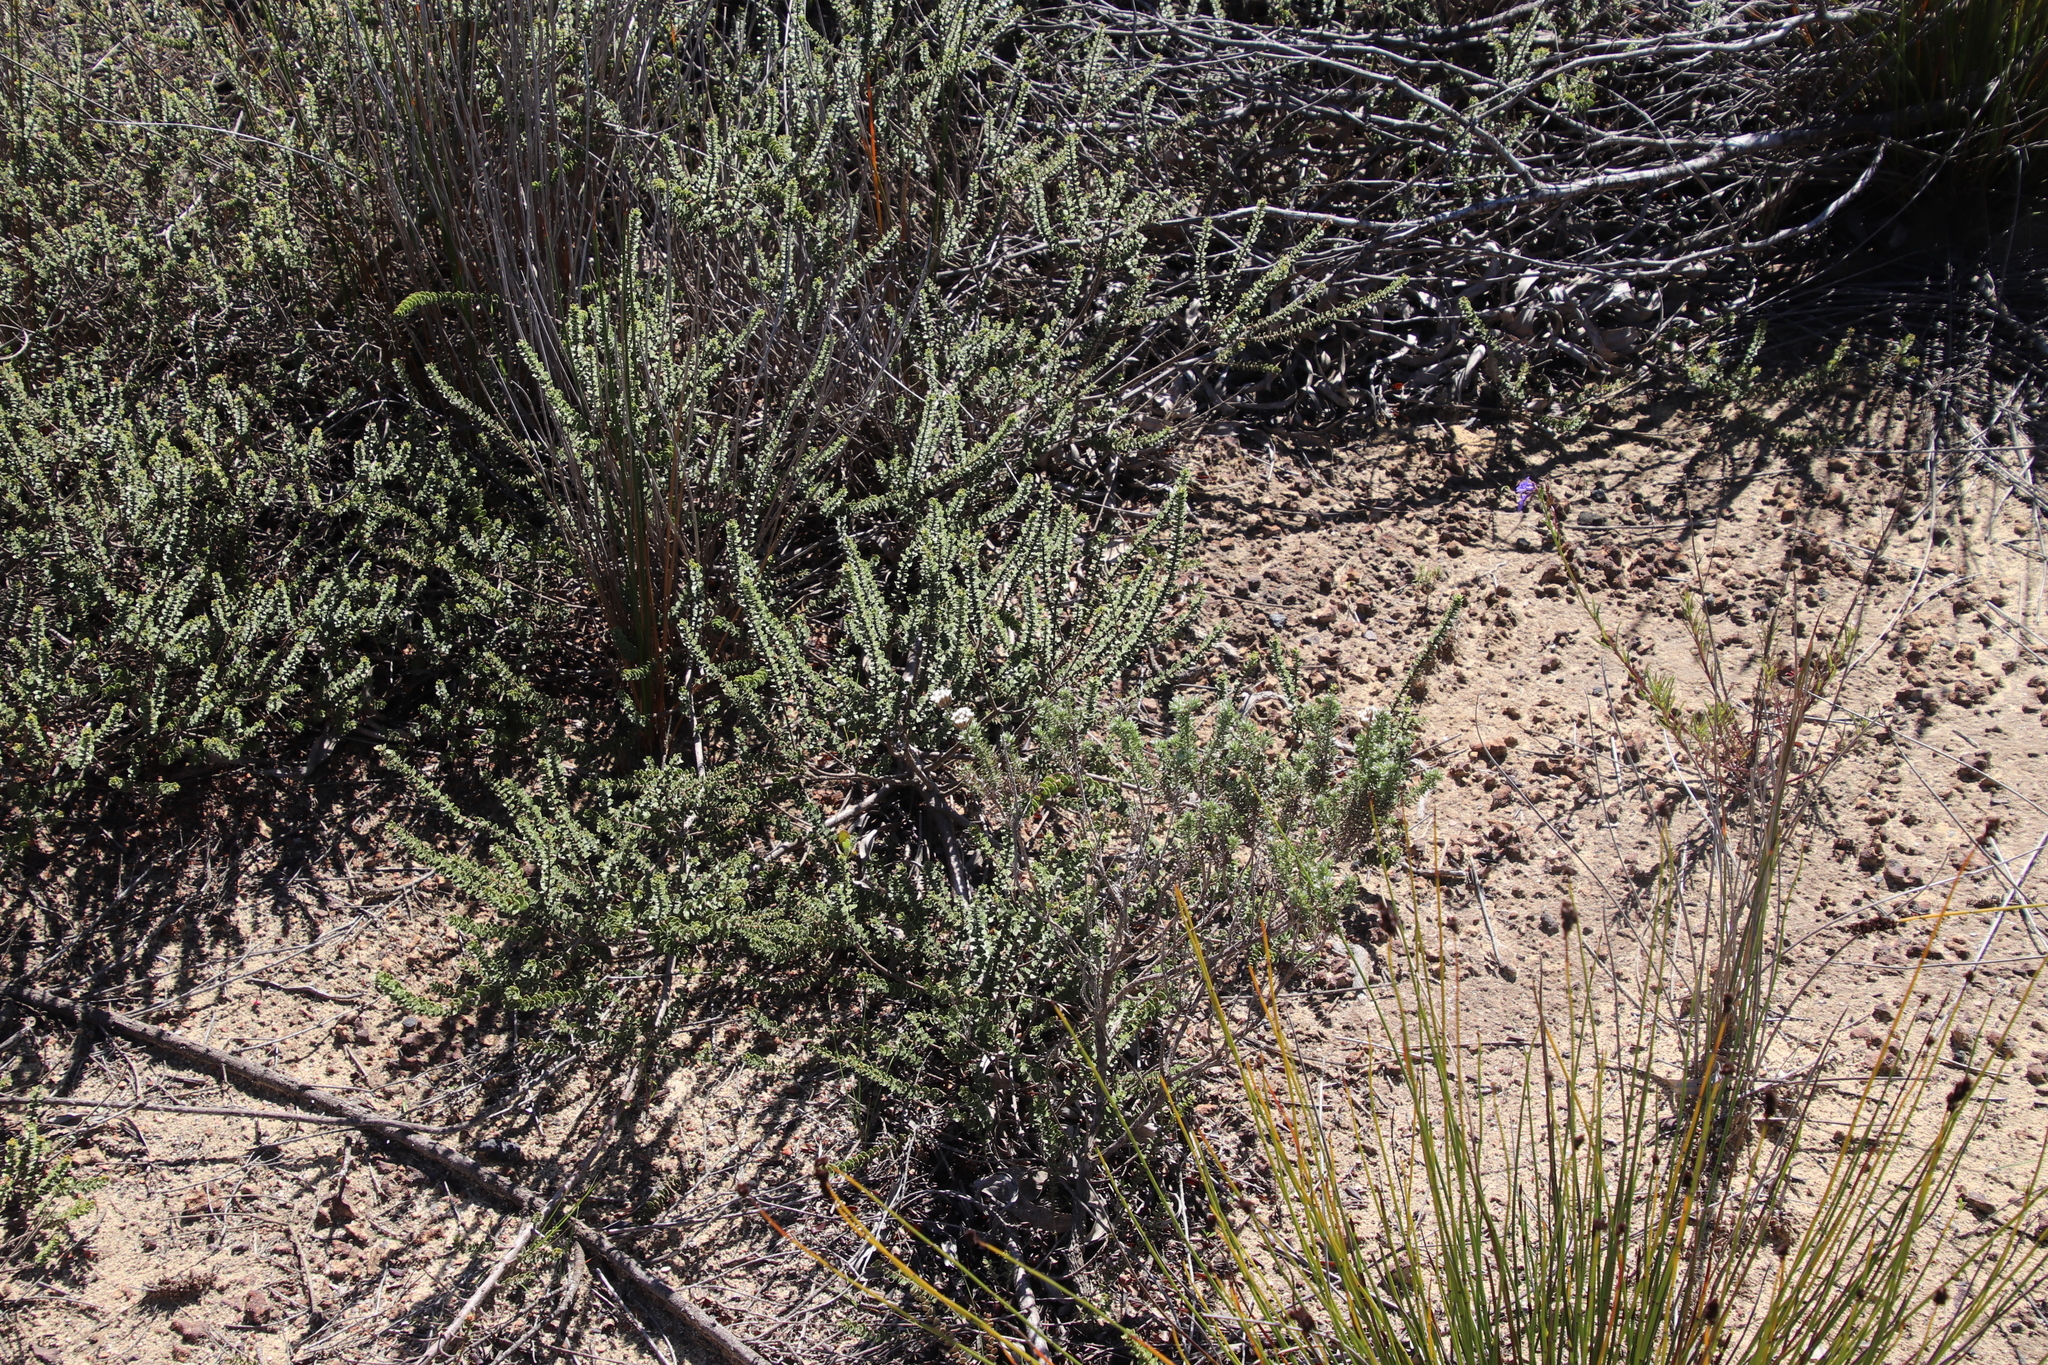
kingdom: Plantae
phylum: Tracheophyta
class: Magnoliopsida
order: Fagales
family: Myricaceae
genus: Morella
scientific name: Morella cordifolia
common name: Waxberry
